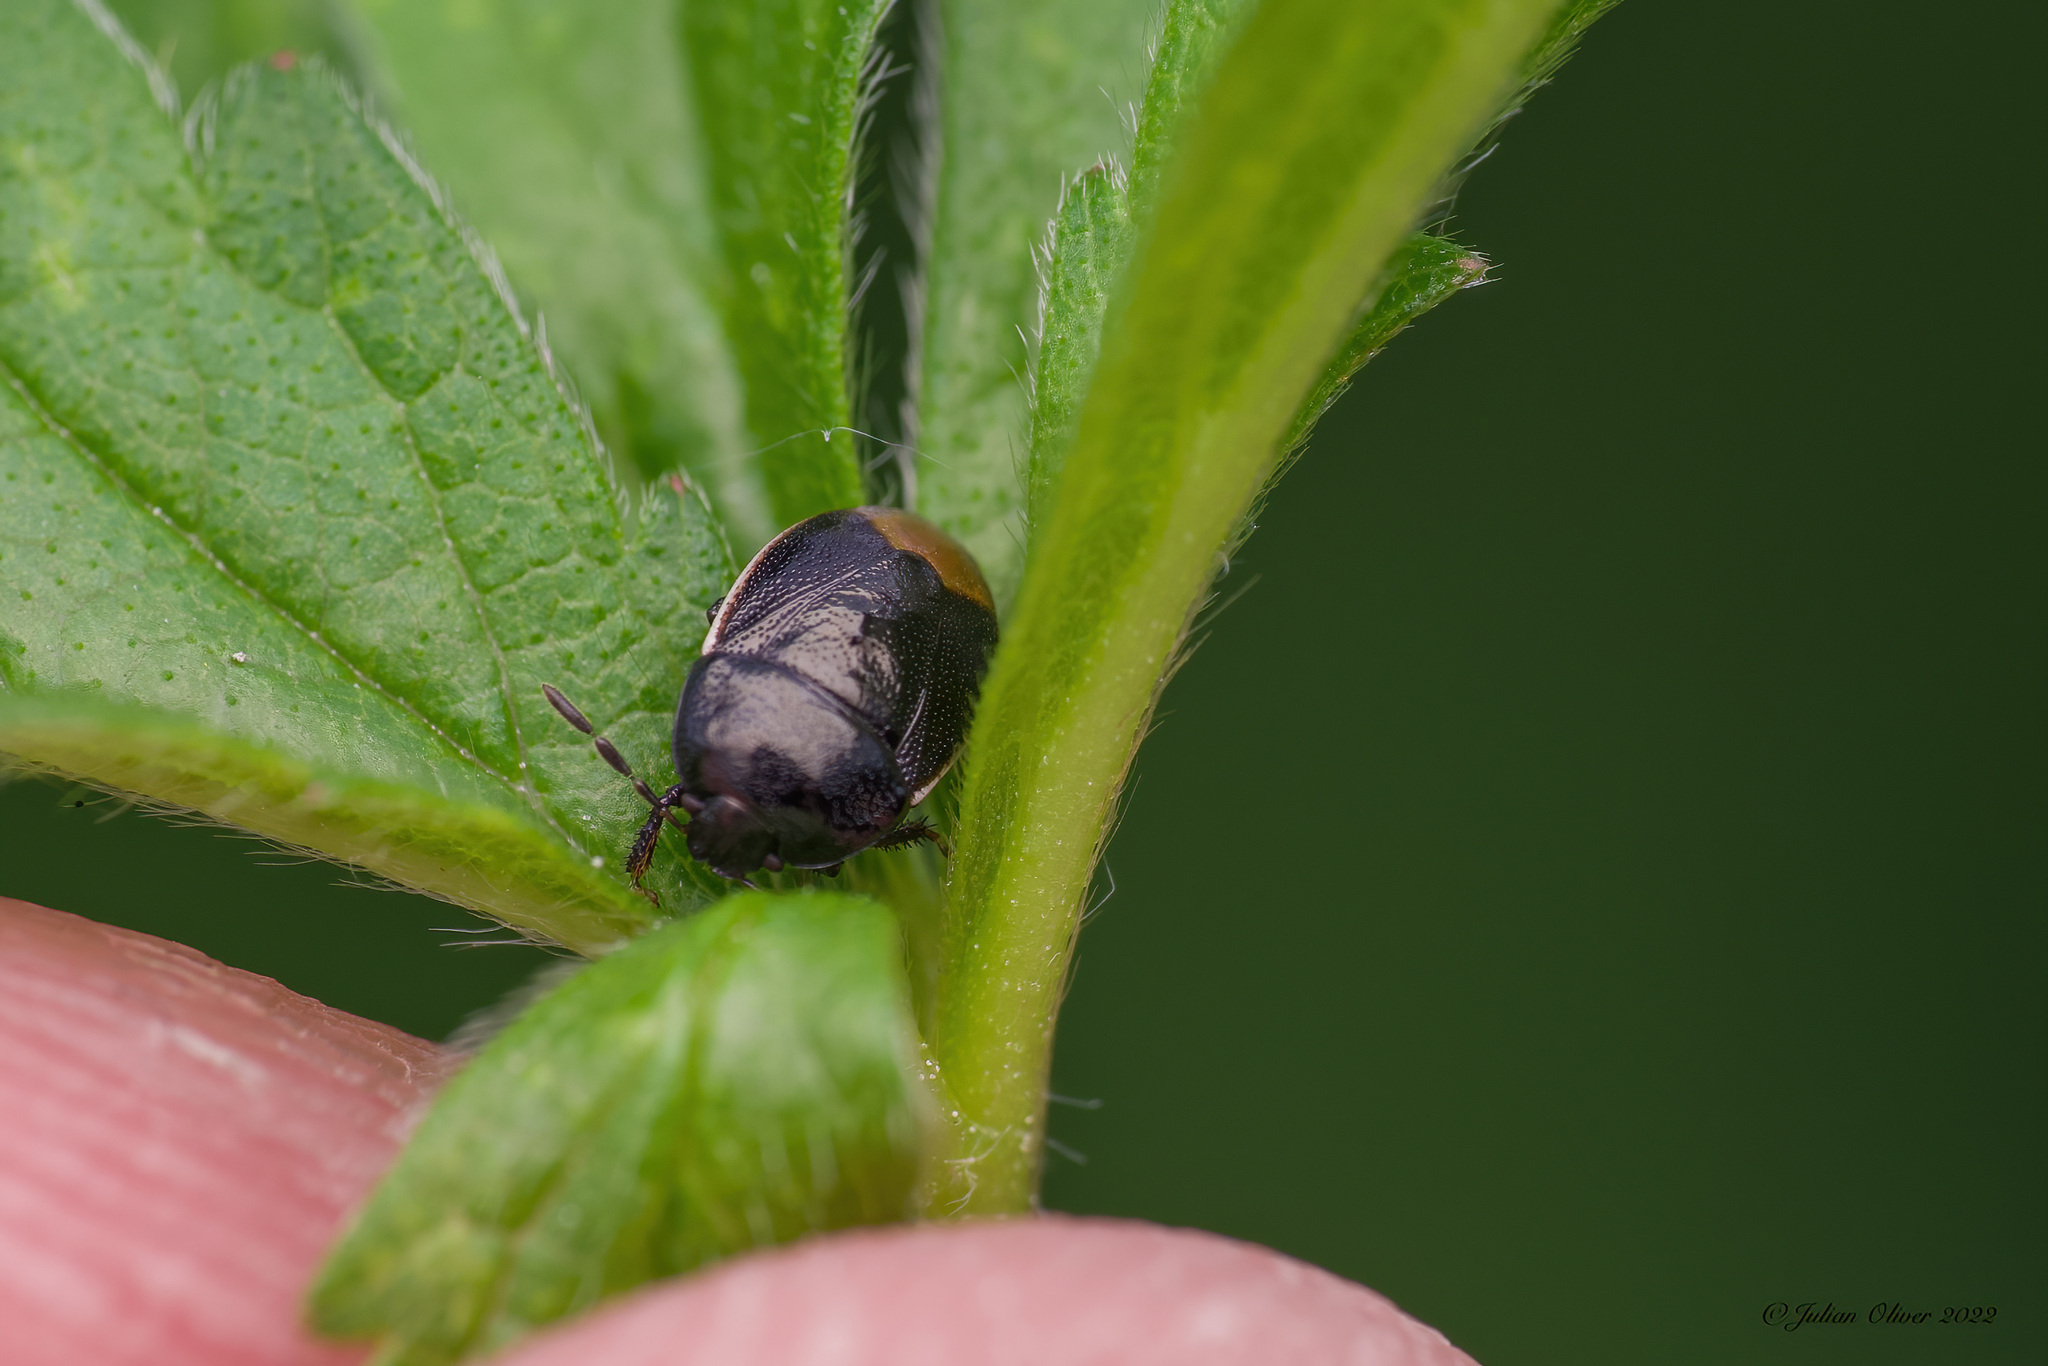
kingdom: Animalia
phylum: Arthropoda
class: Insecta
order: Hemiptera
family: Cydnidae
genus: Legnotus
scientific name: Legnotus limbosus
